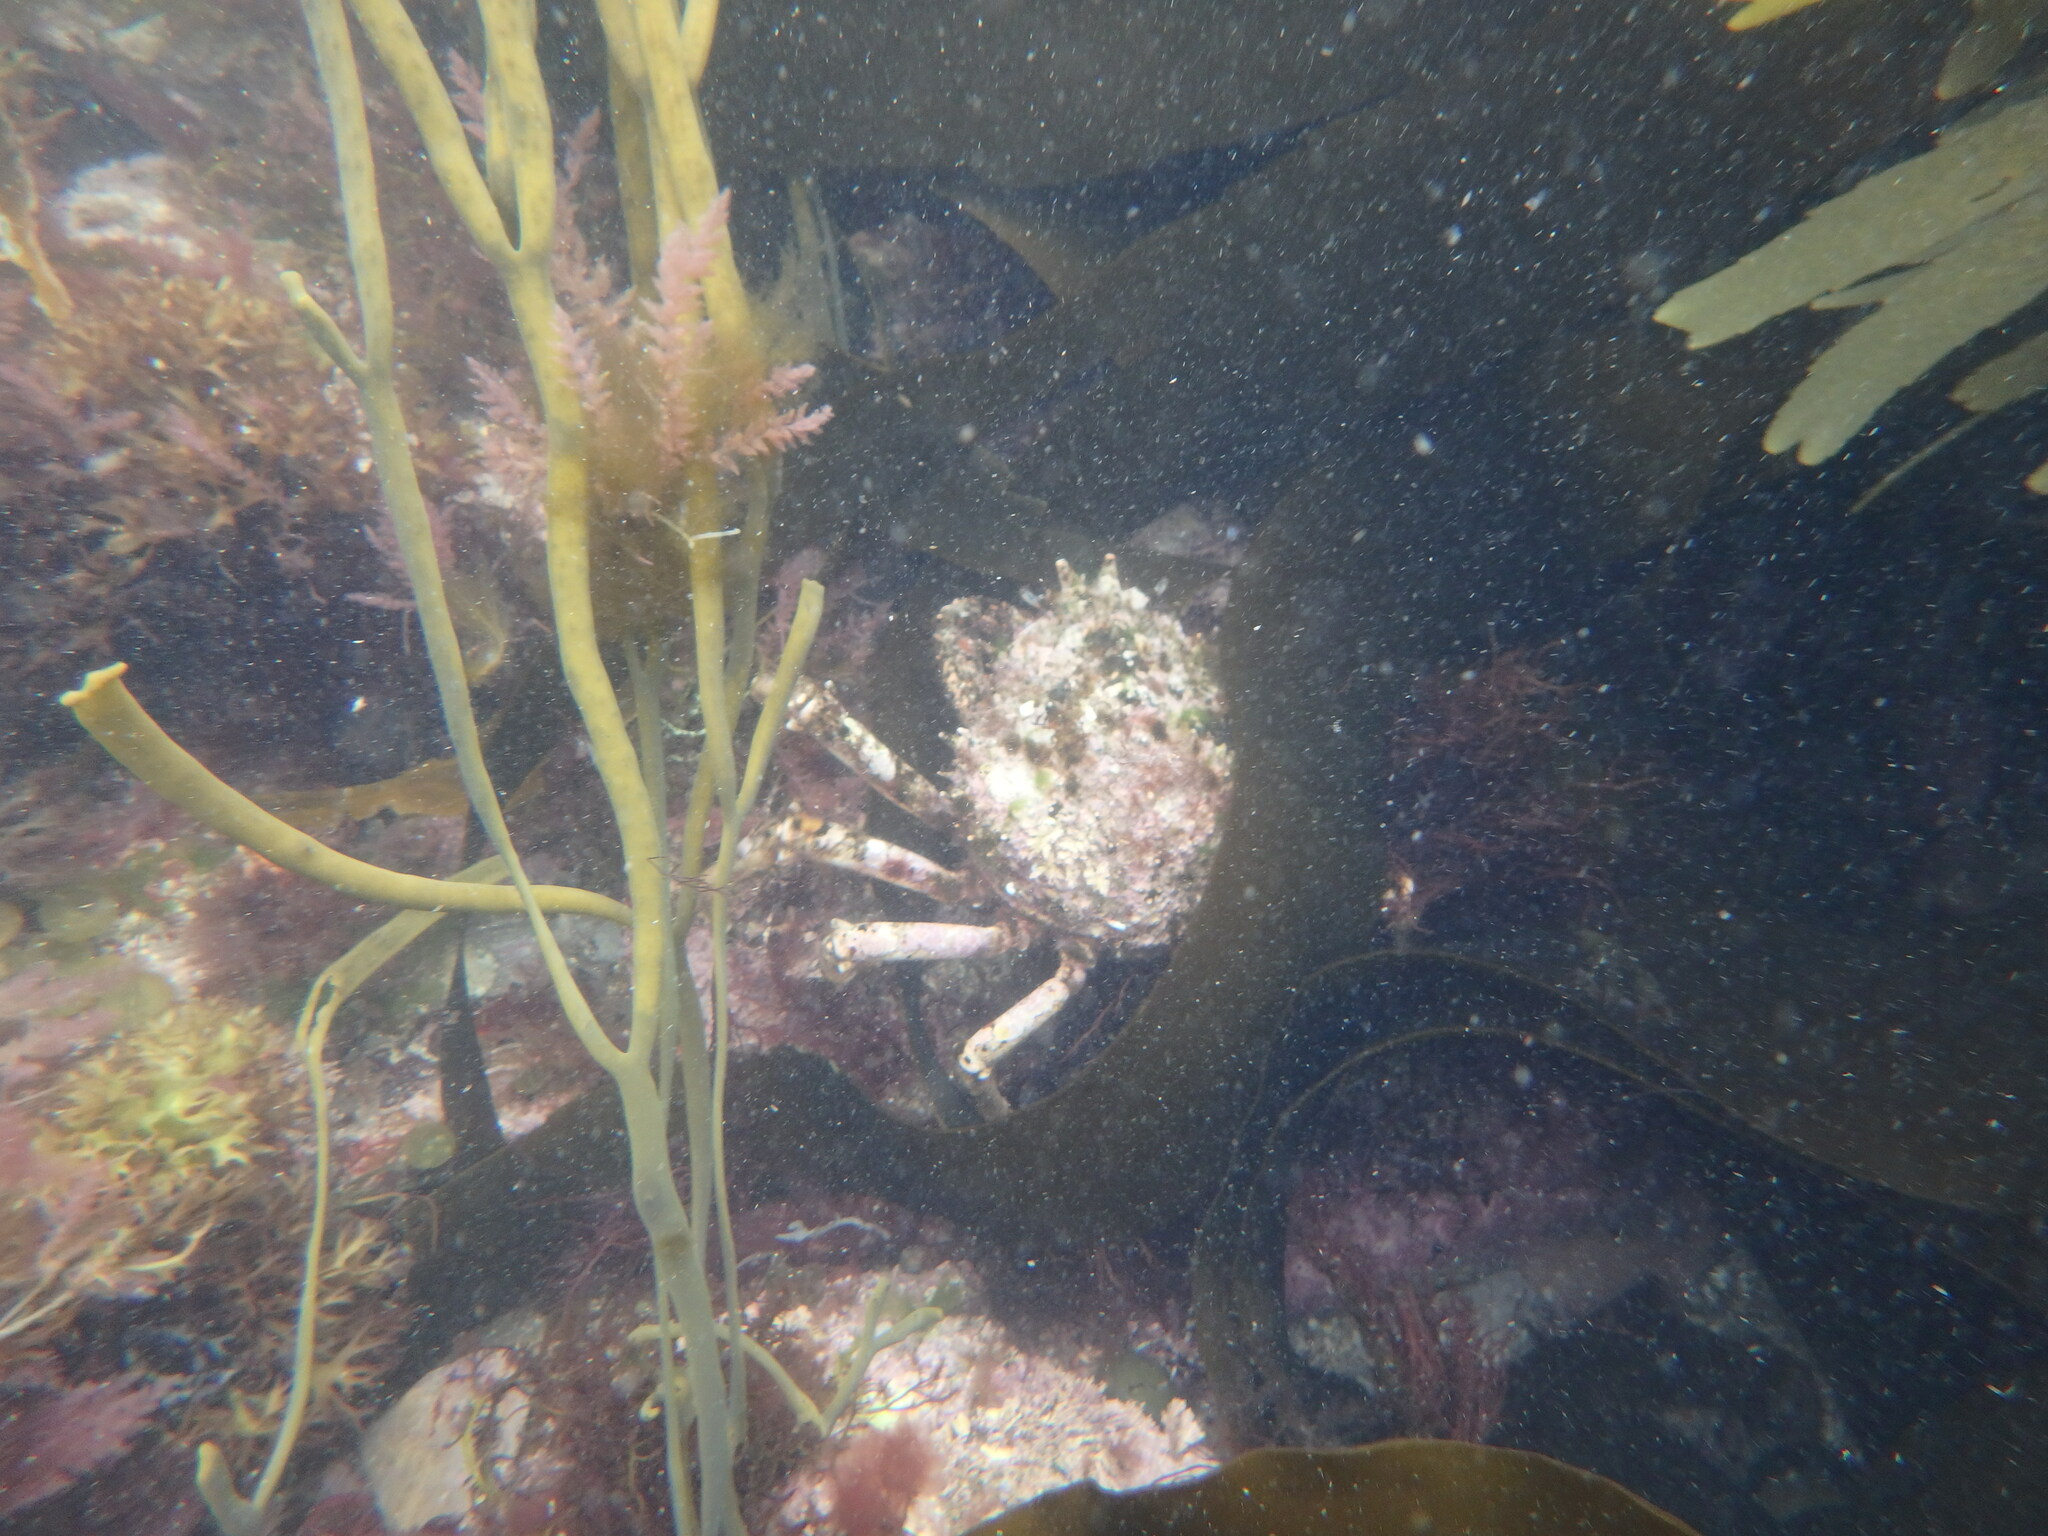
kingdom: Animalia
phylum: Arthropoda
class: Malacostraca
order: Decapoda
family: Majidae
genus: Maja
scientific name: Maja brachydactyla
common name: Common spider crab
